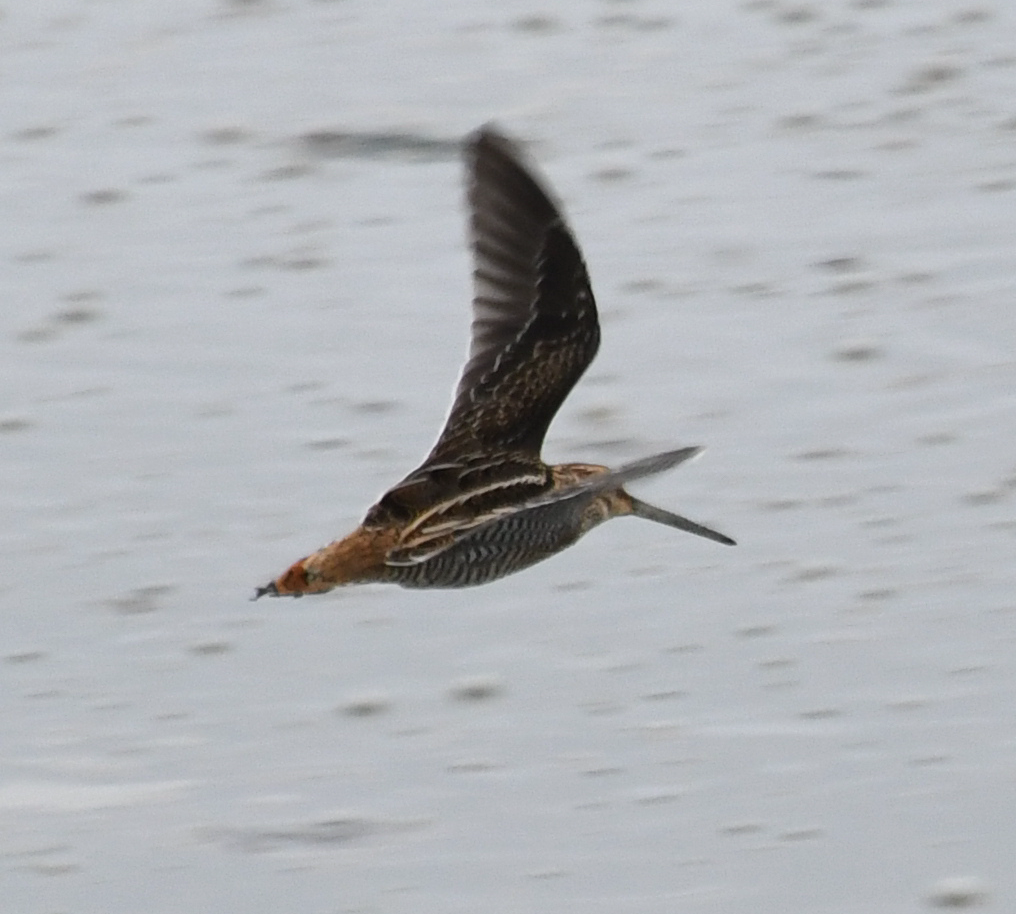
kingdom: Animalia
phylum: Chordata
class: Aves
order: Charadriiformes
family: Scolopacidae
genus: Gallinago
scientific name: Gallinago delicata
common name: Wilson's snipe
